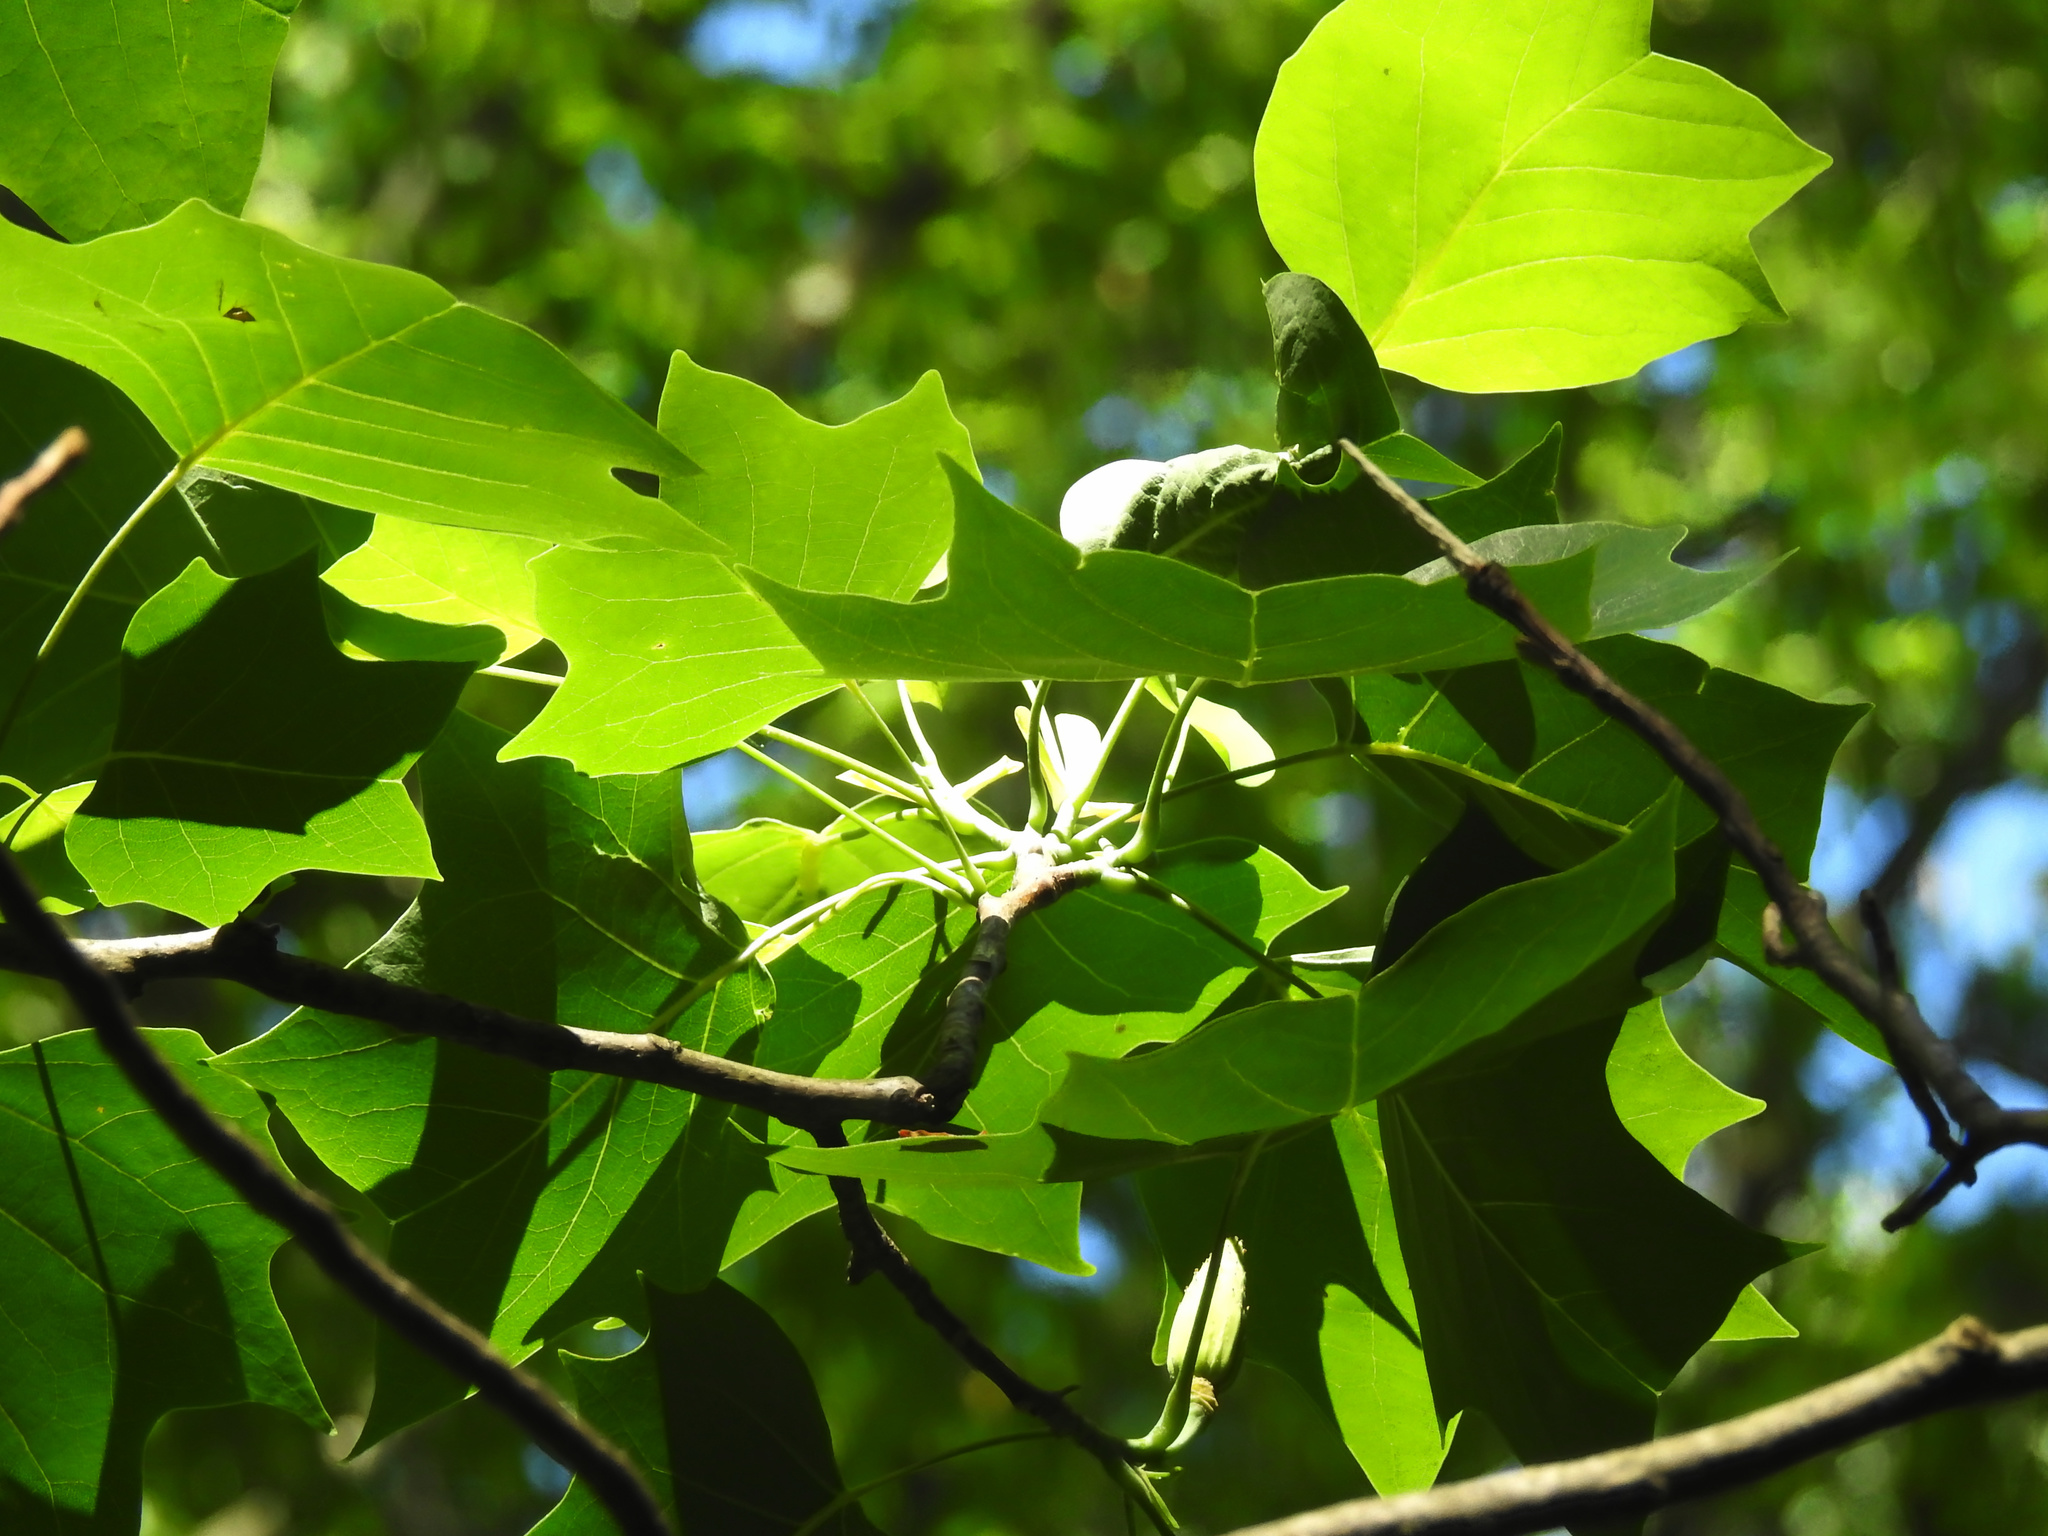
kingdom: Plantae
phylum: Tracheophyta
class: Magnoliopsida
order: Magnoliales
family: Magnoliaceae
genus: Liriodendron
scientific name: Liriodendron tulipifera
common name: Tulip tree
